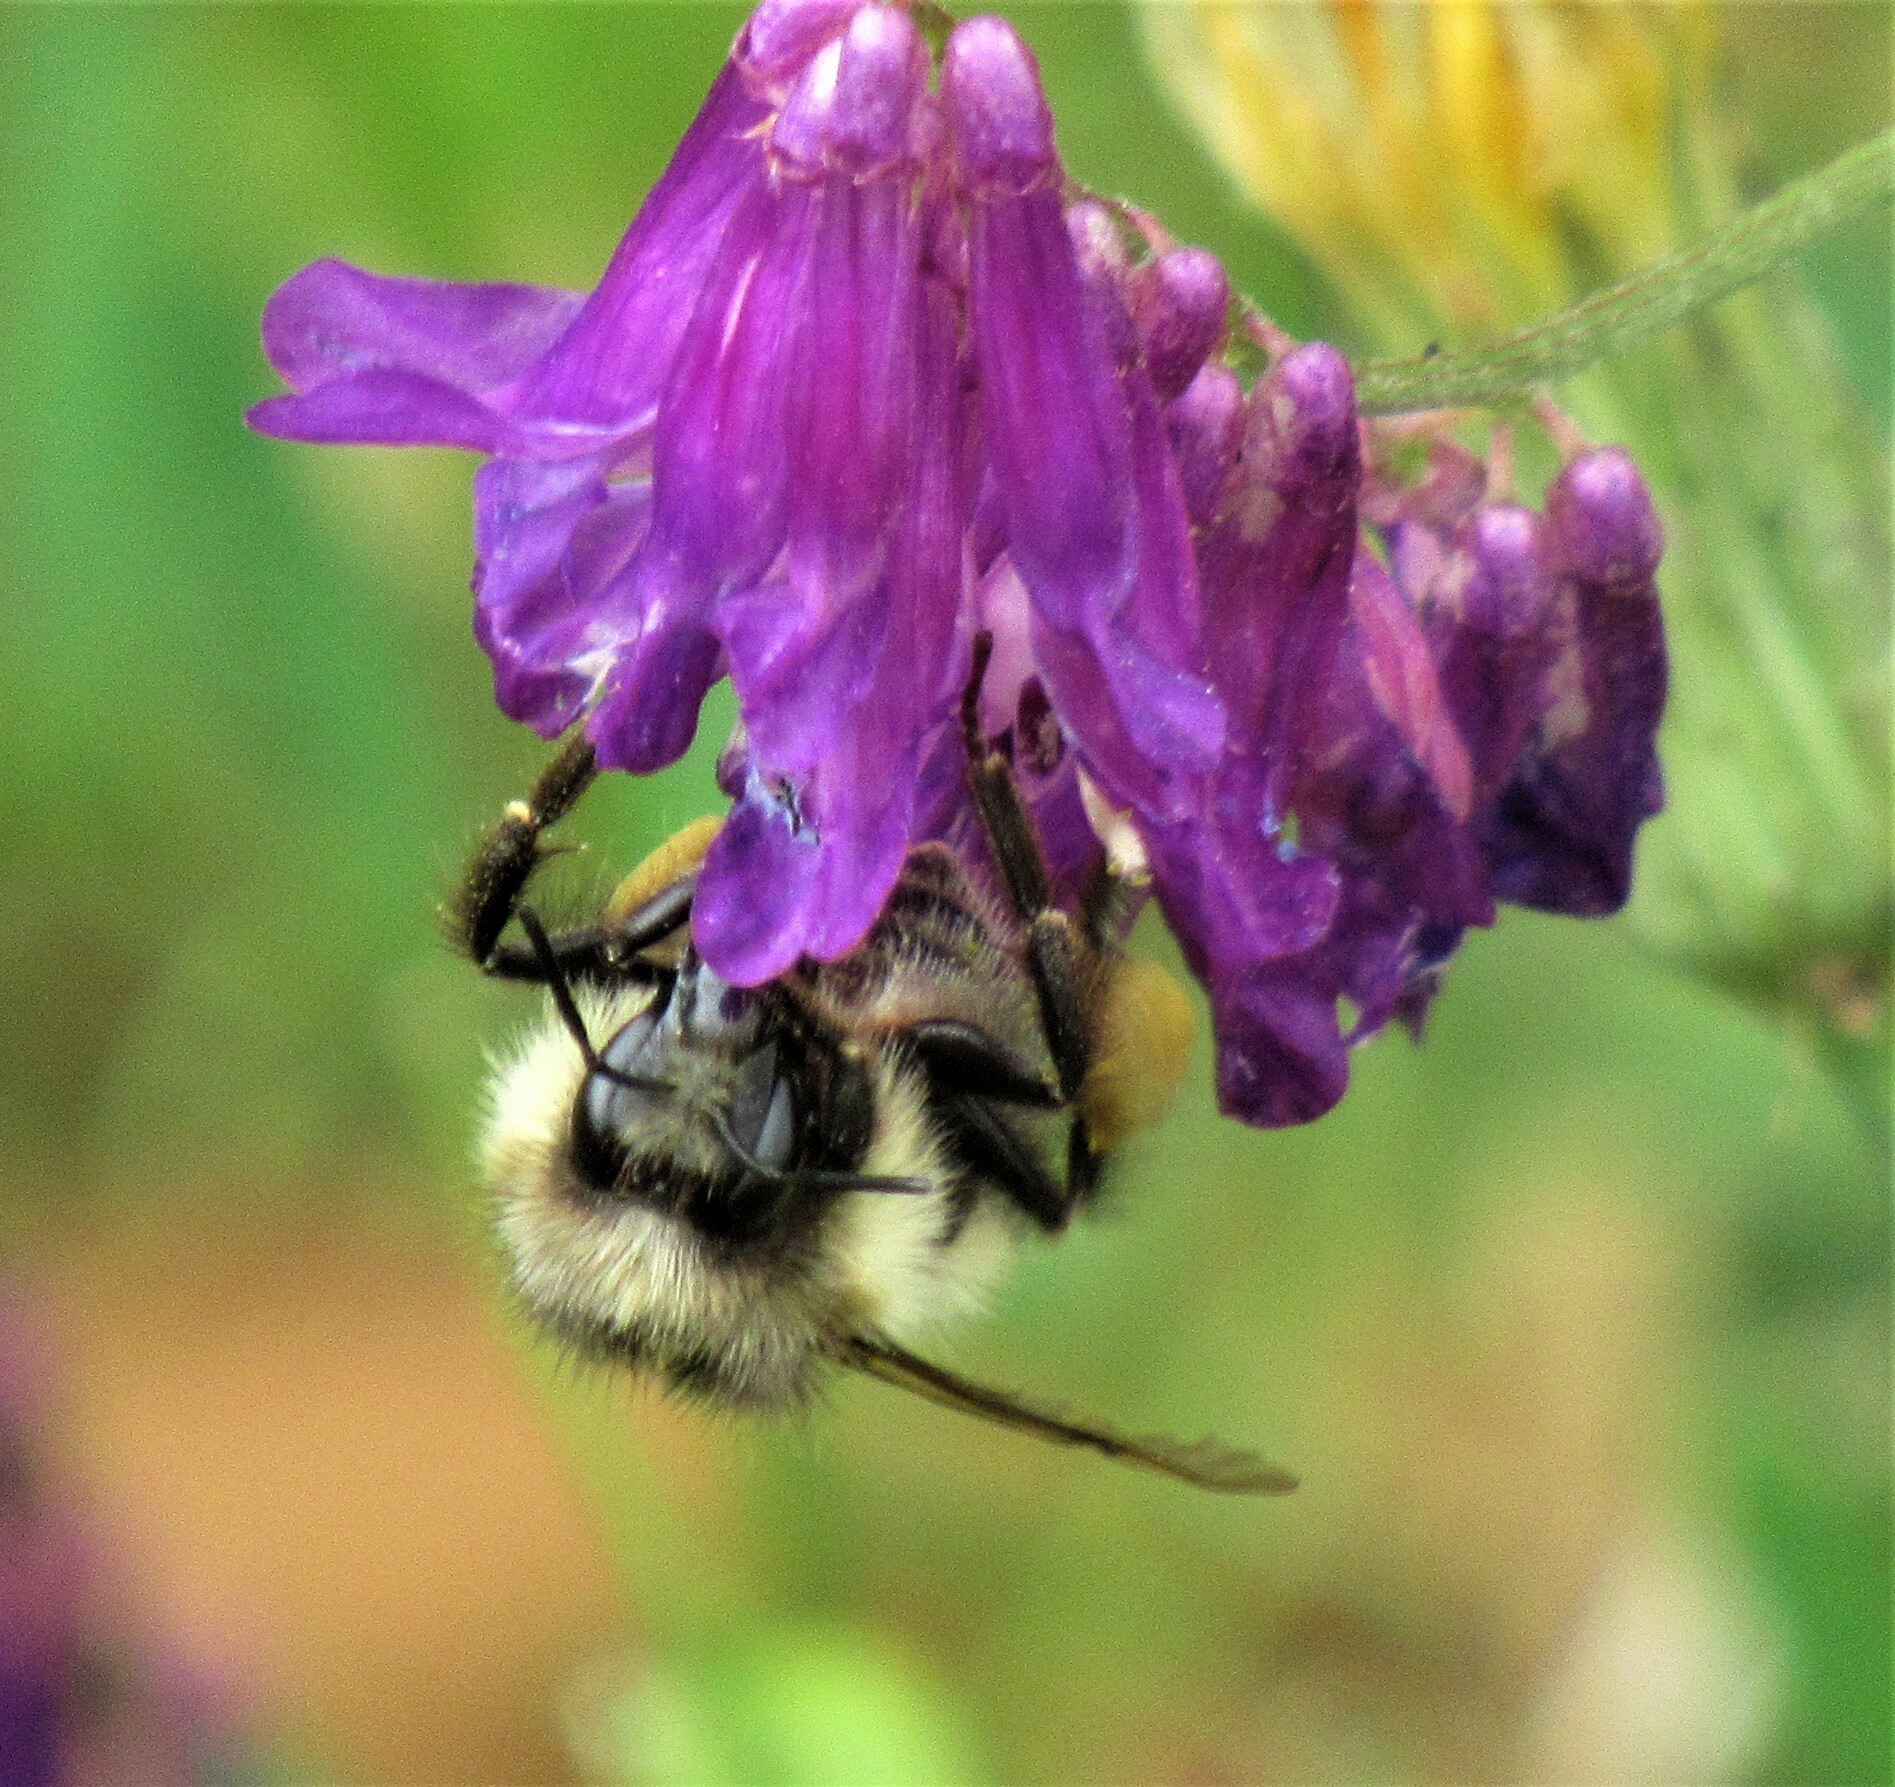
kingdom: Animalia
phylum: Arthropoda
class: Insecta
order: Hymenoptera
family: Apidae
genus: Bombus
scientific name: Bombus flavifrons
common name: Yellow head bumble bee
